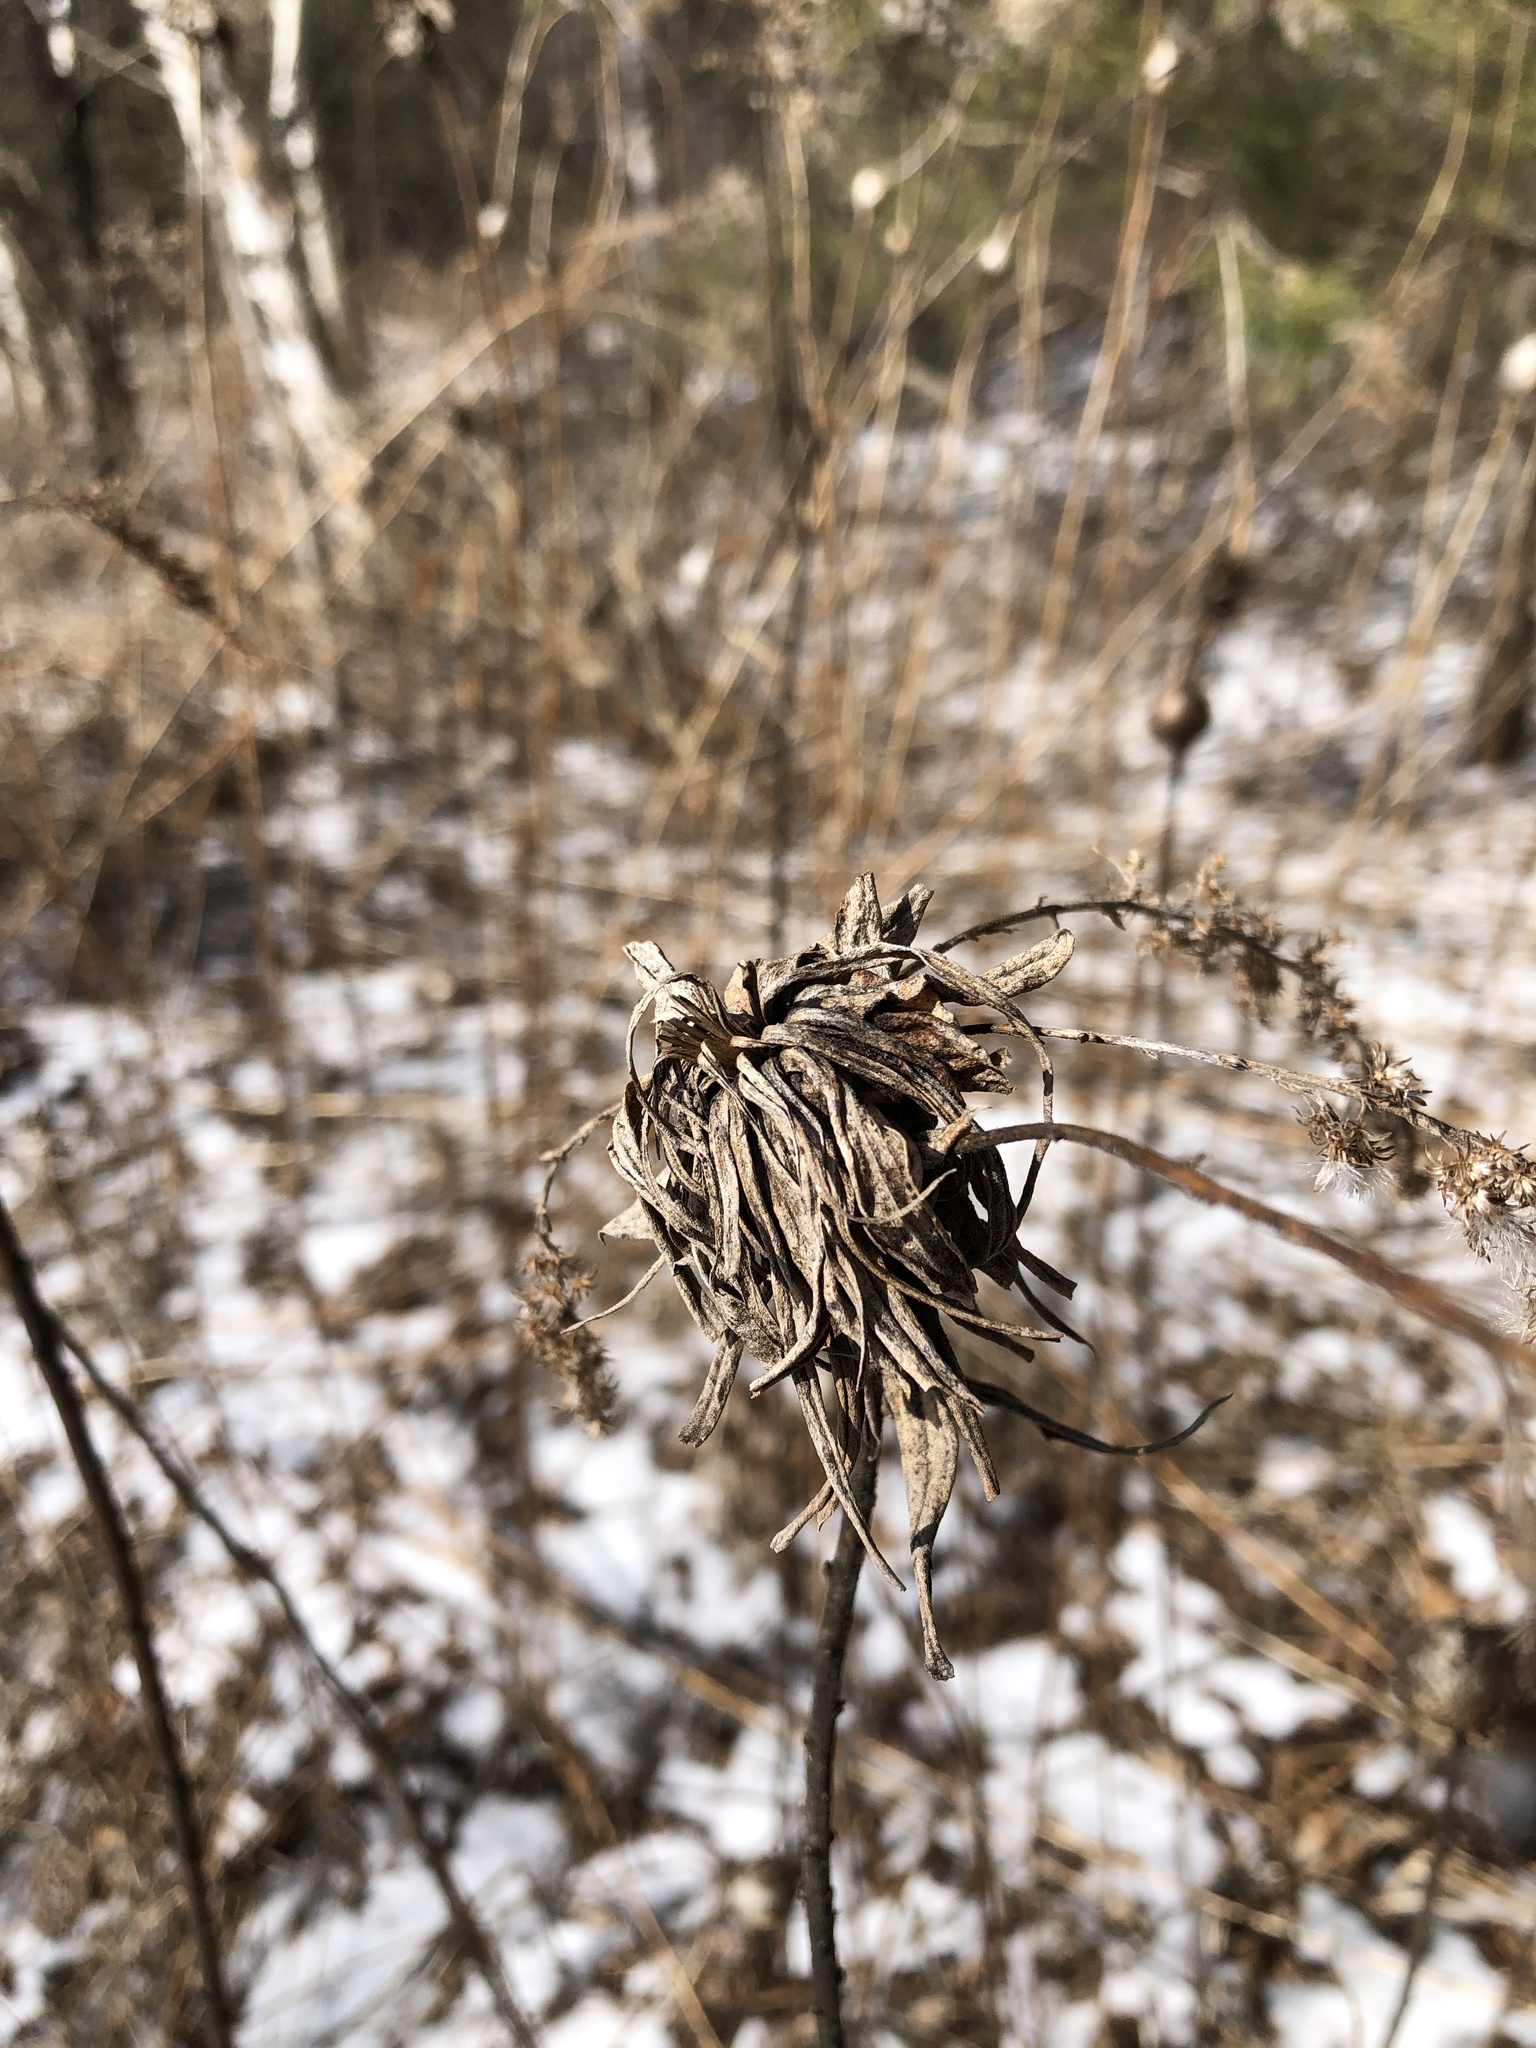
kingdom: Animalia
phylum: Arthropoda
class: Insecta
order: Diptera
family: Cecidomyiidae
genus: Rhopalomyia
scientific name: Rhopalomyia solidaginis
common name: Goldenrod bunch gall midge
